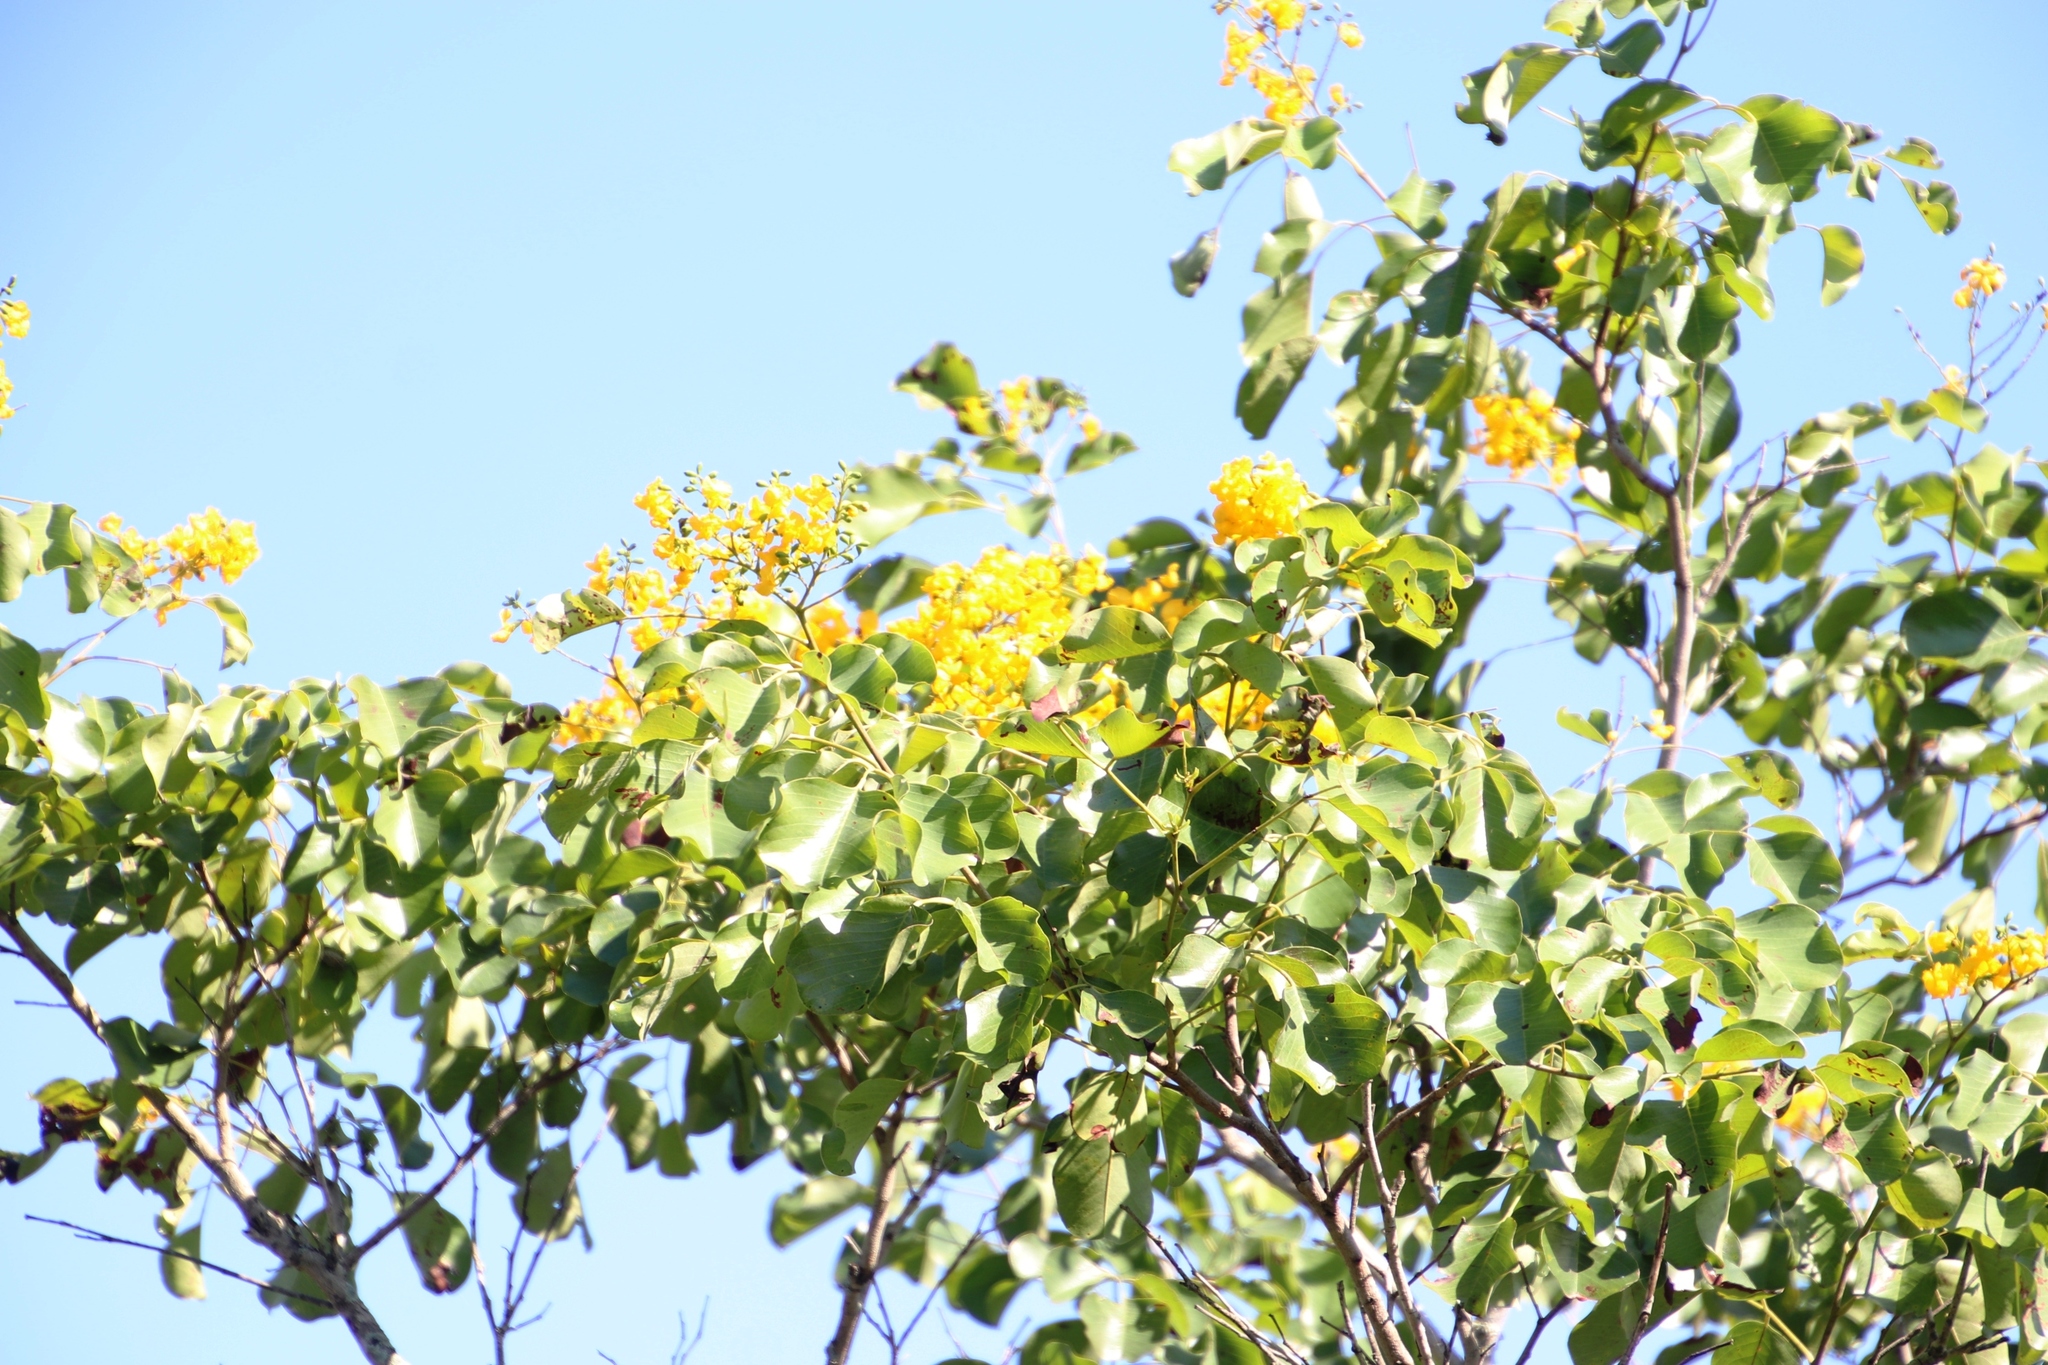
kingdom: Plantae
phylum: Tracheophyta
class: Magnoliopsida
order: Fabales
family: Fabaceae
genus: Pterocarpus
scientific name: Pterocarpus rotundifolius
